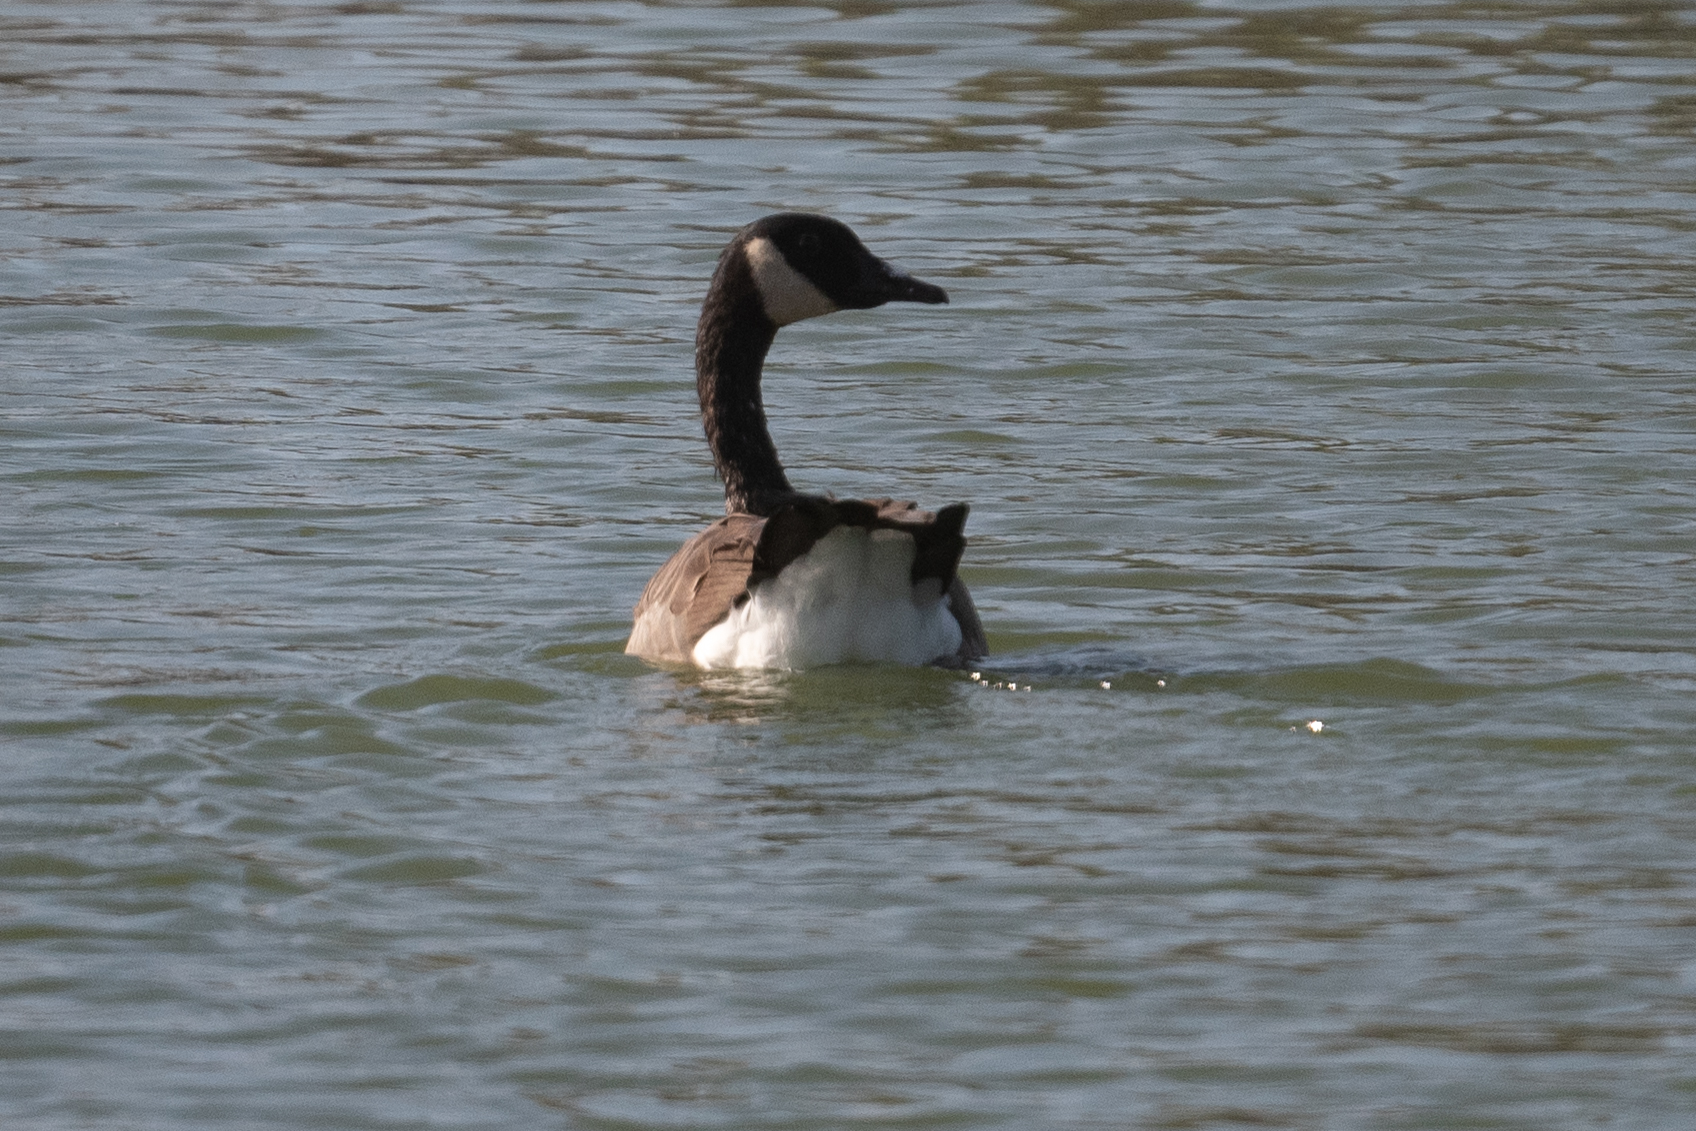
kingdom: Animalia
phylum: Chordata
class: Aves
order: Anseriformes
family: Anatidae
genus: Branta
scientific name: Branta canadensis
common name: Canada goose
